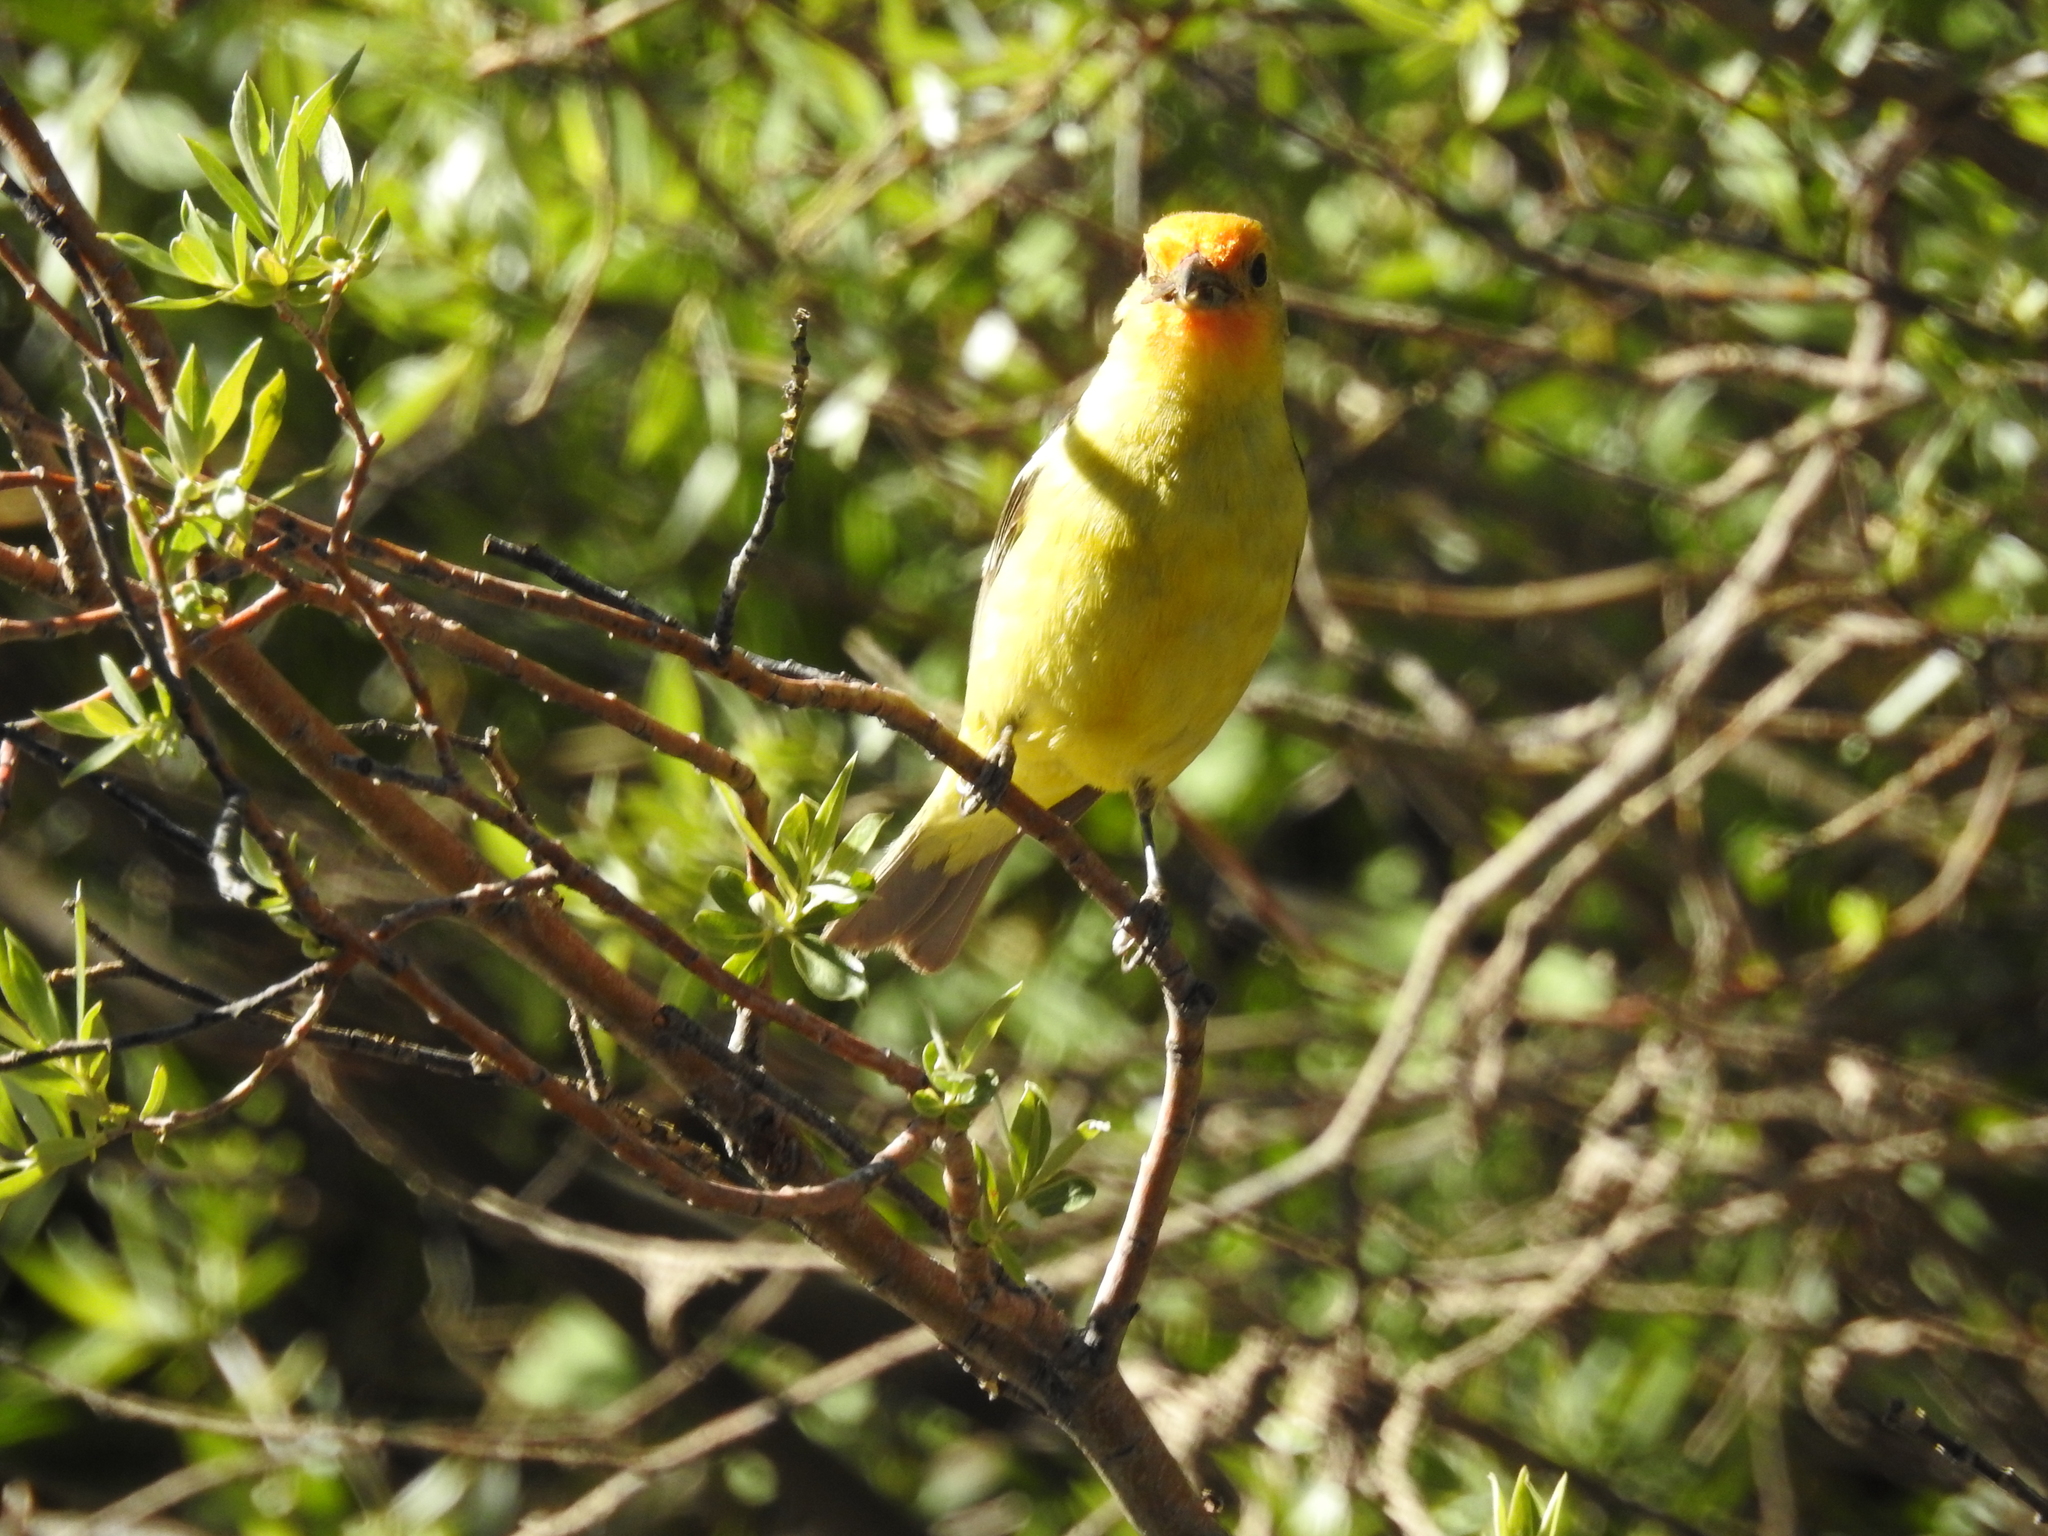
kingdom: Animalia
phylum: Chordata
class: Aves
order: Passeriformes
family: Cardinalidae
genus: Piranga
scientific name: Piranga ludoviciana
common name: Western tanager
